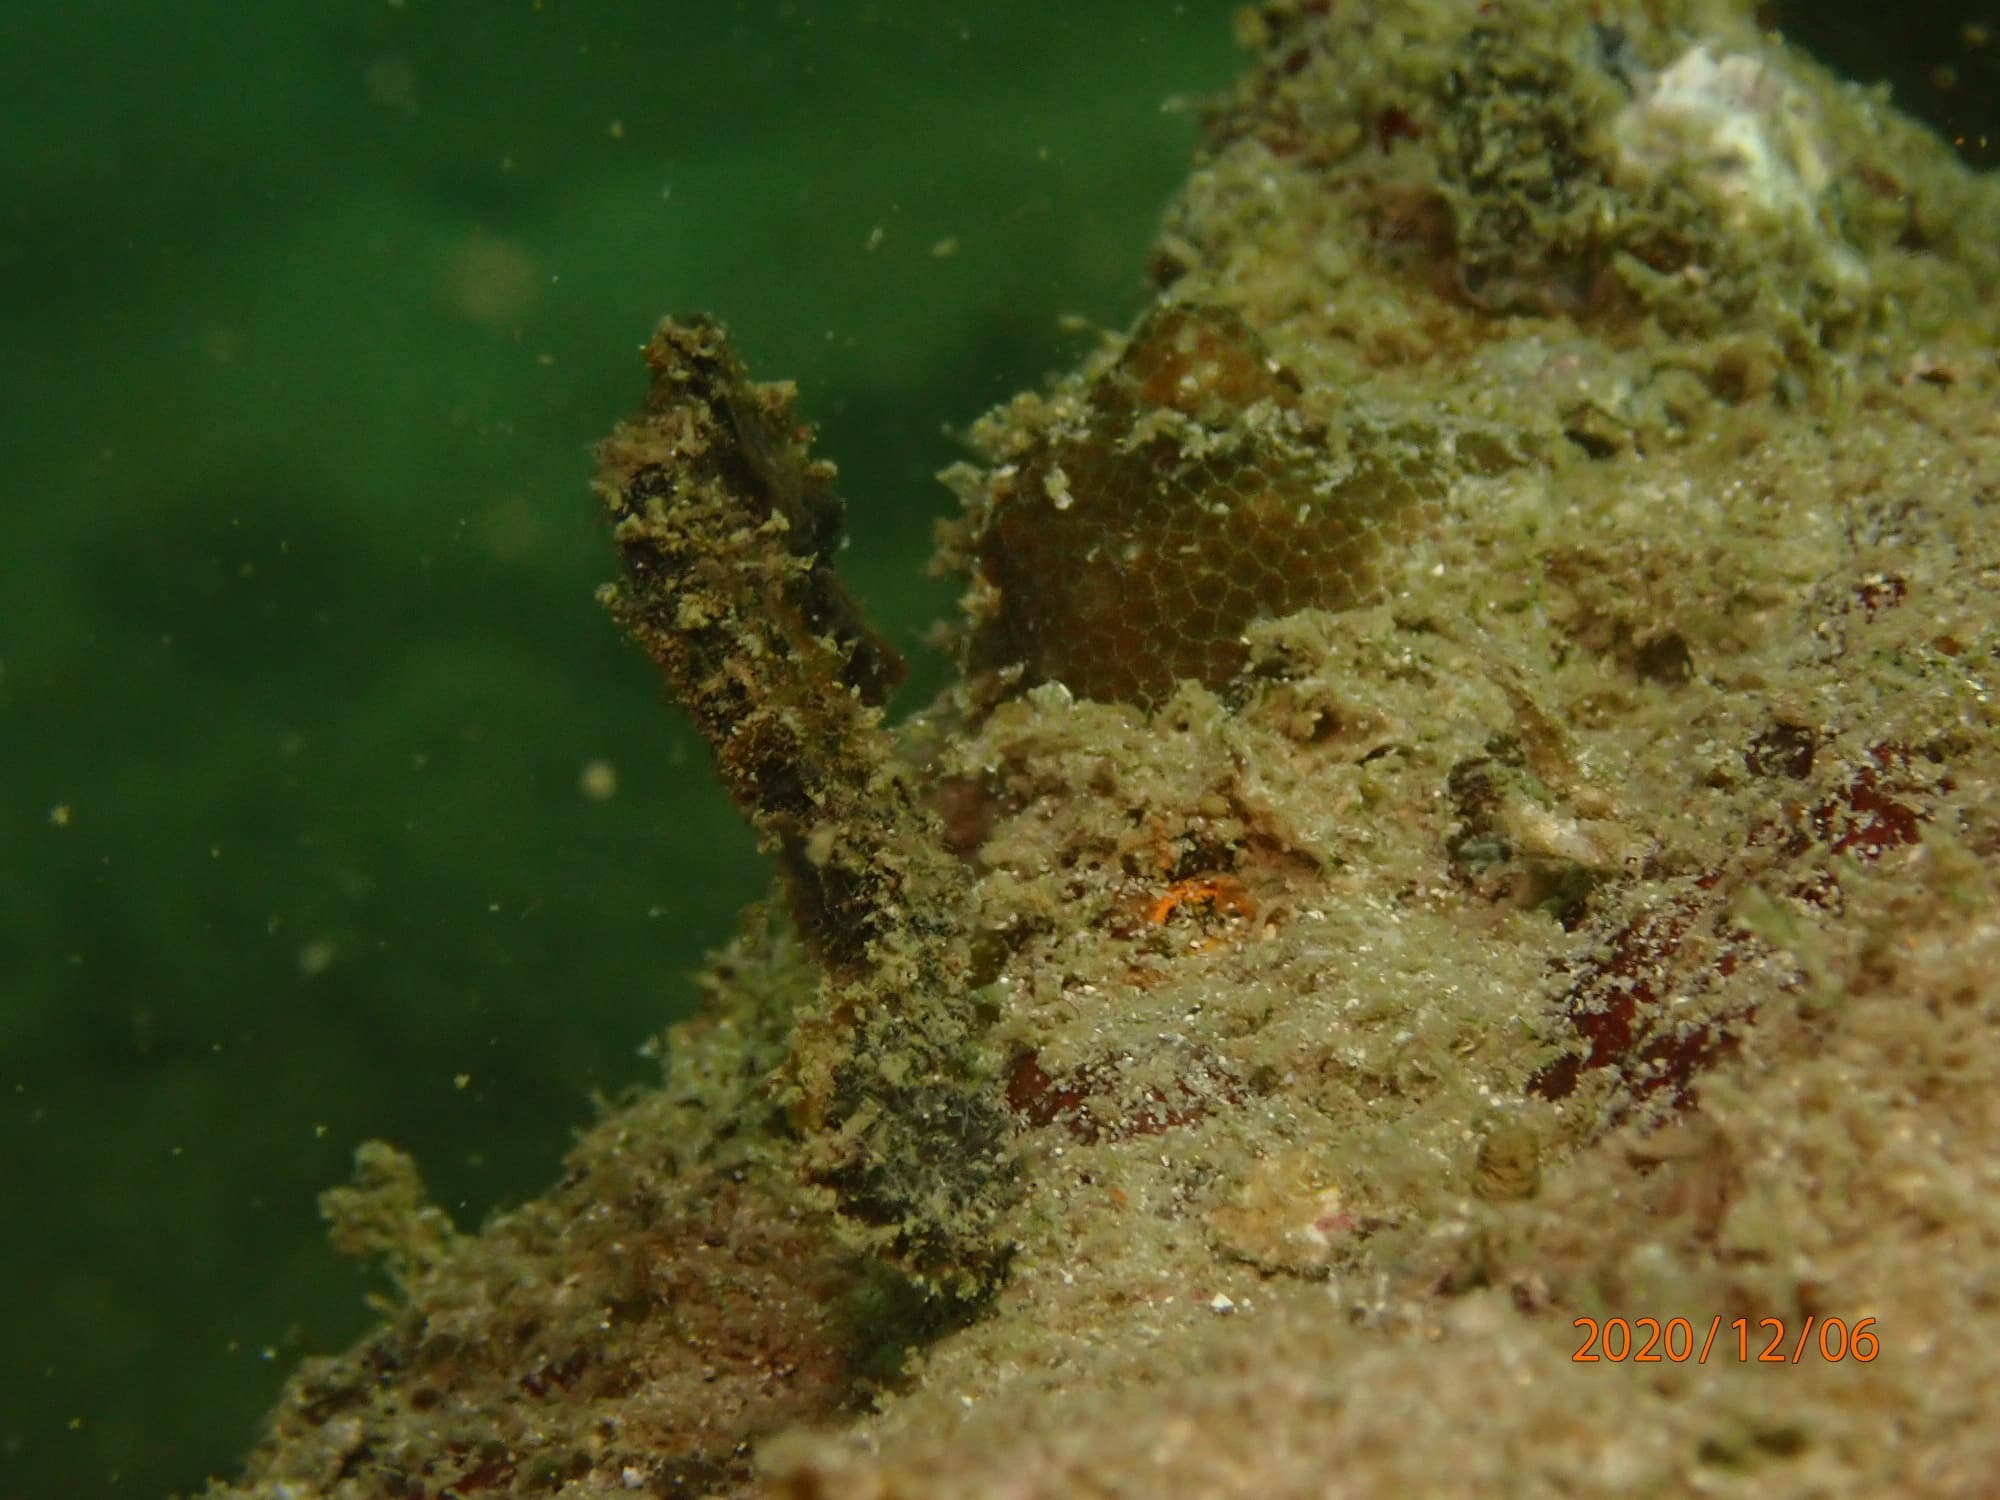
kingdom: Animalia
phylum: Chordata
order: Syngnathiformes
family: Syngnathidae
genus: Hippocampus
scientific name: Hippocampus kuda
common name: Spotted seahorse
